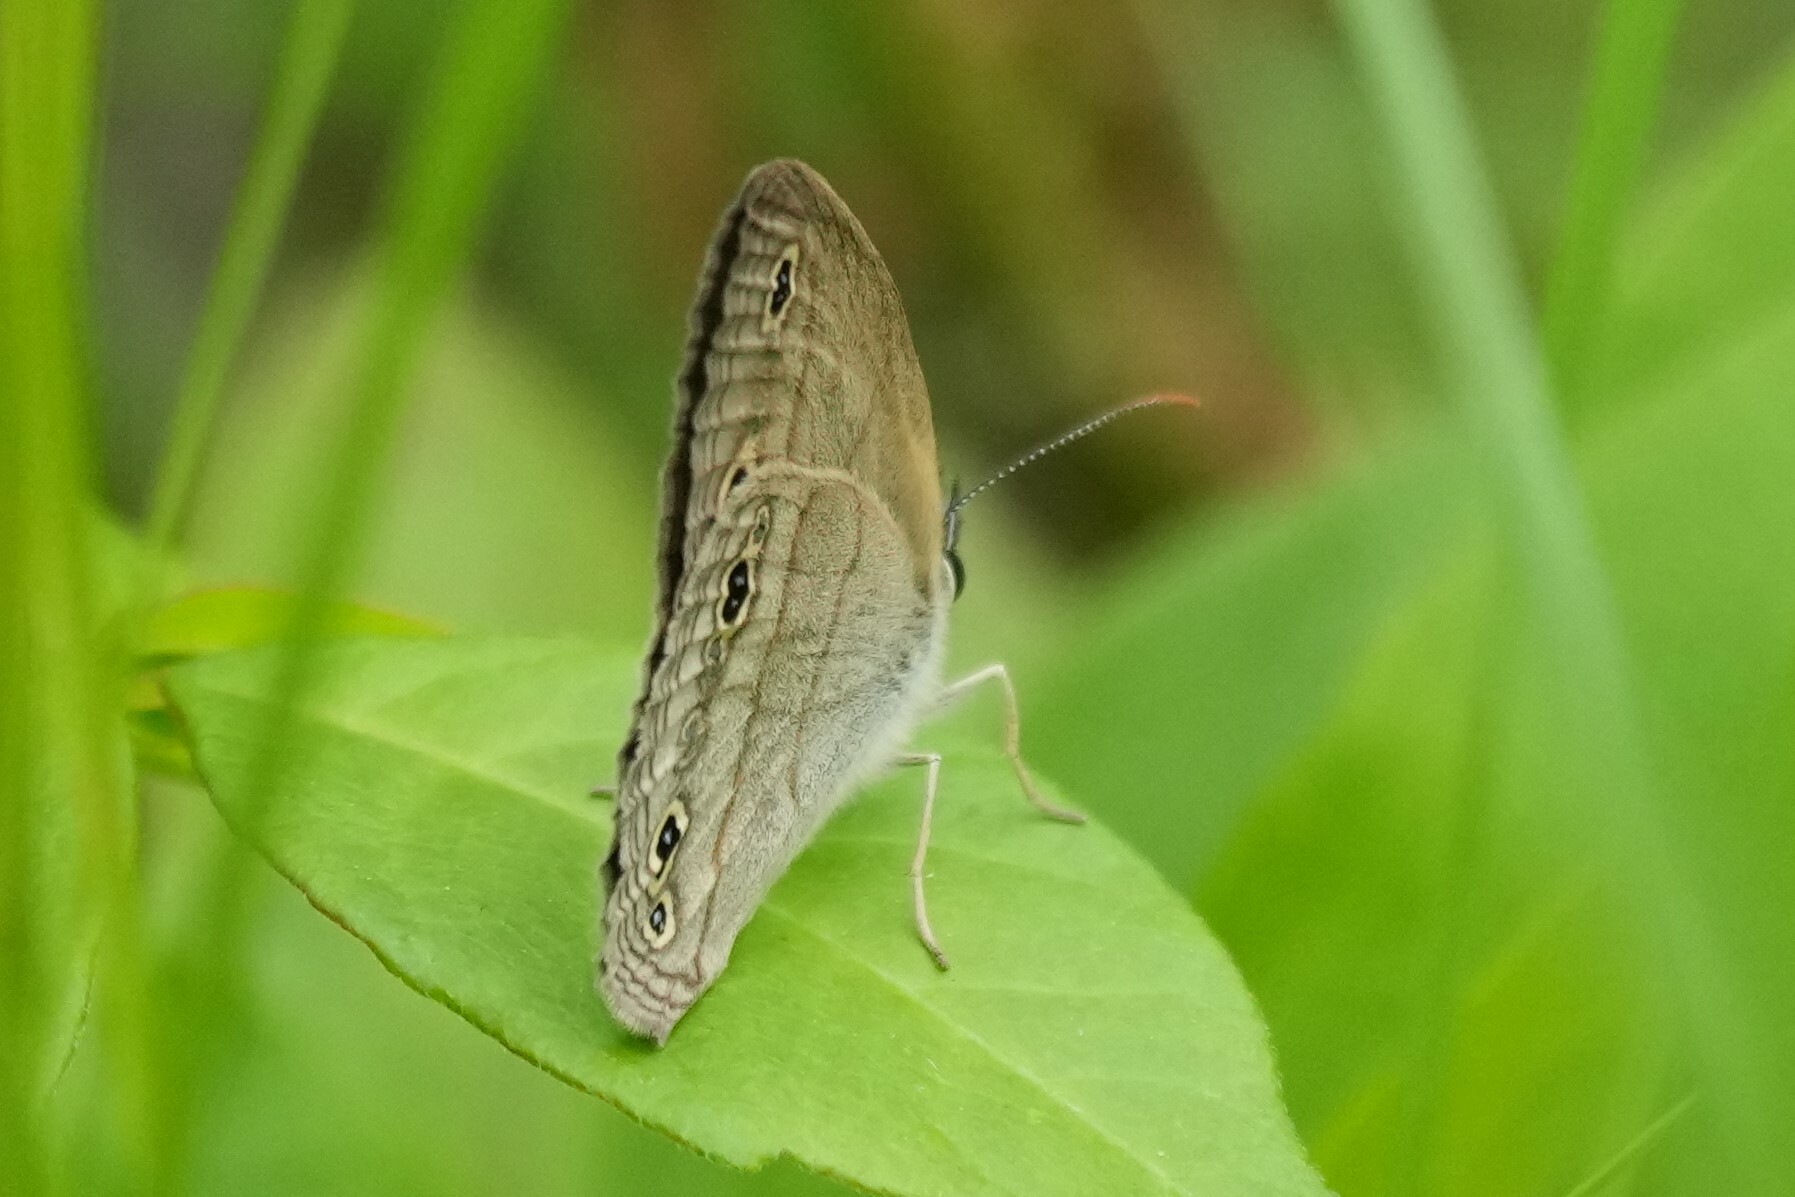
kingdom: Animalia
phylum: Arthropoda
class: Insecta
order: Lepidoptera
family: Nymphalidae
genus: Euptychia
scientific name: Euptychia cymela
